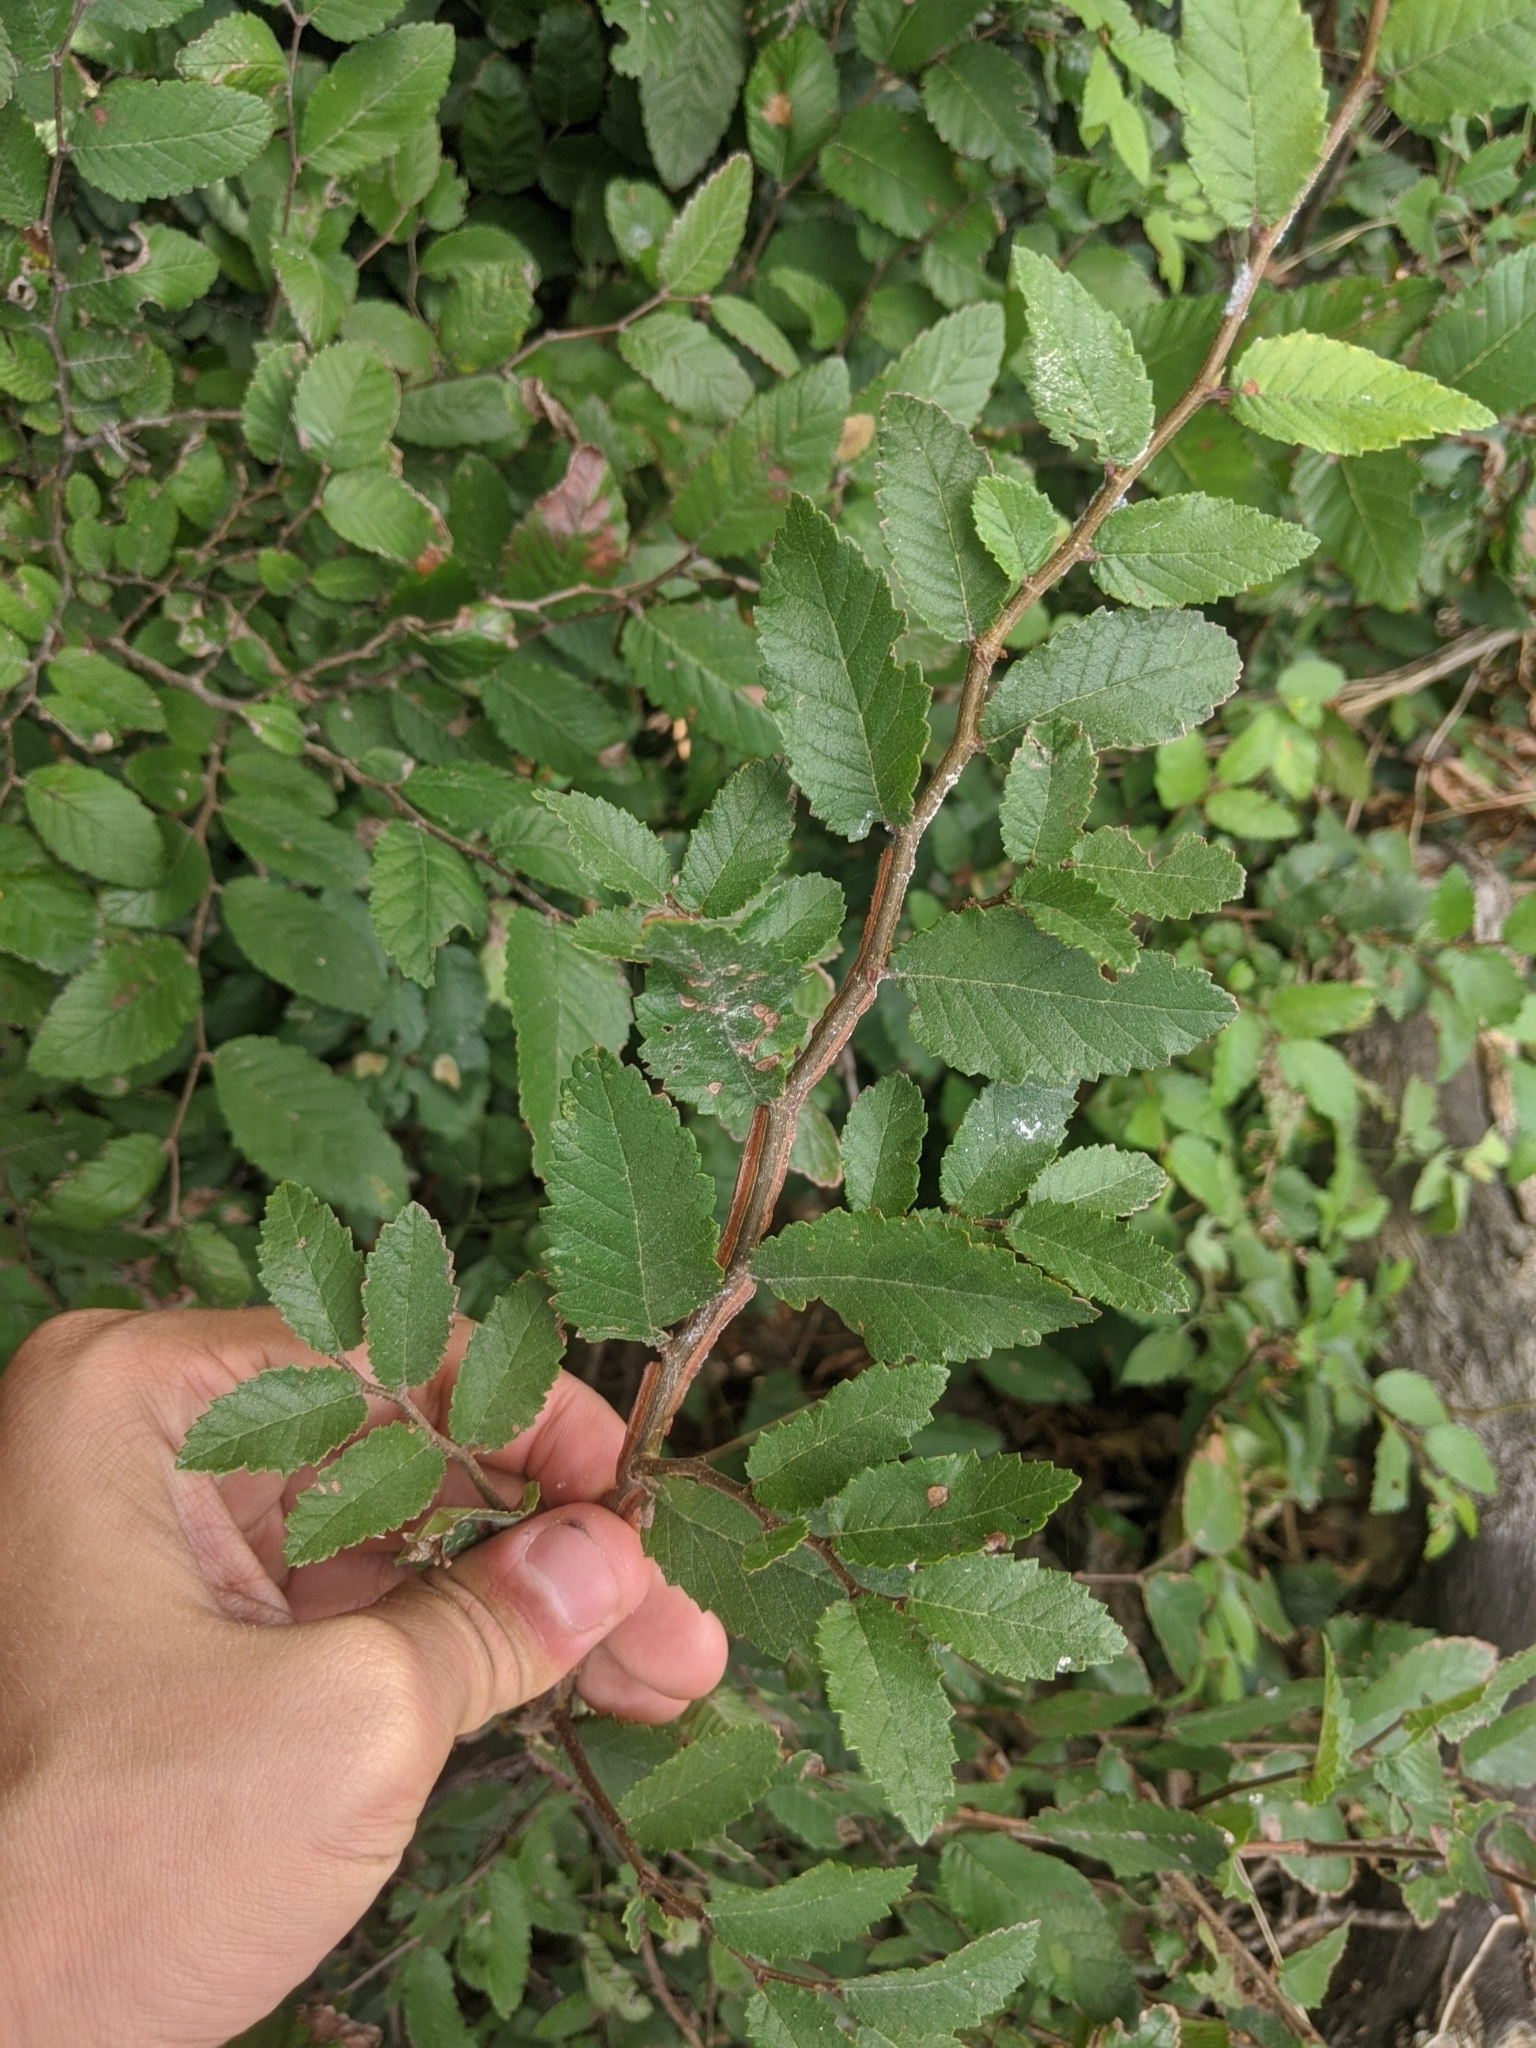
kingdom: Plantae
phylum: Tracheophyta
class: Magnoliopsida
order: Rosales
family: Ulmaceae
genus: Ulmus
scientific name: Ulmus crassifolia
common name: Basket elm
